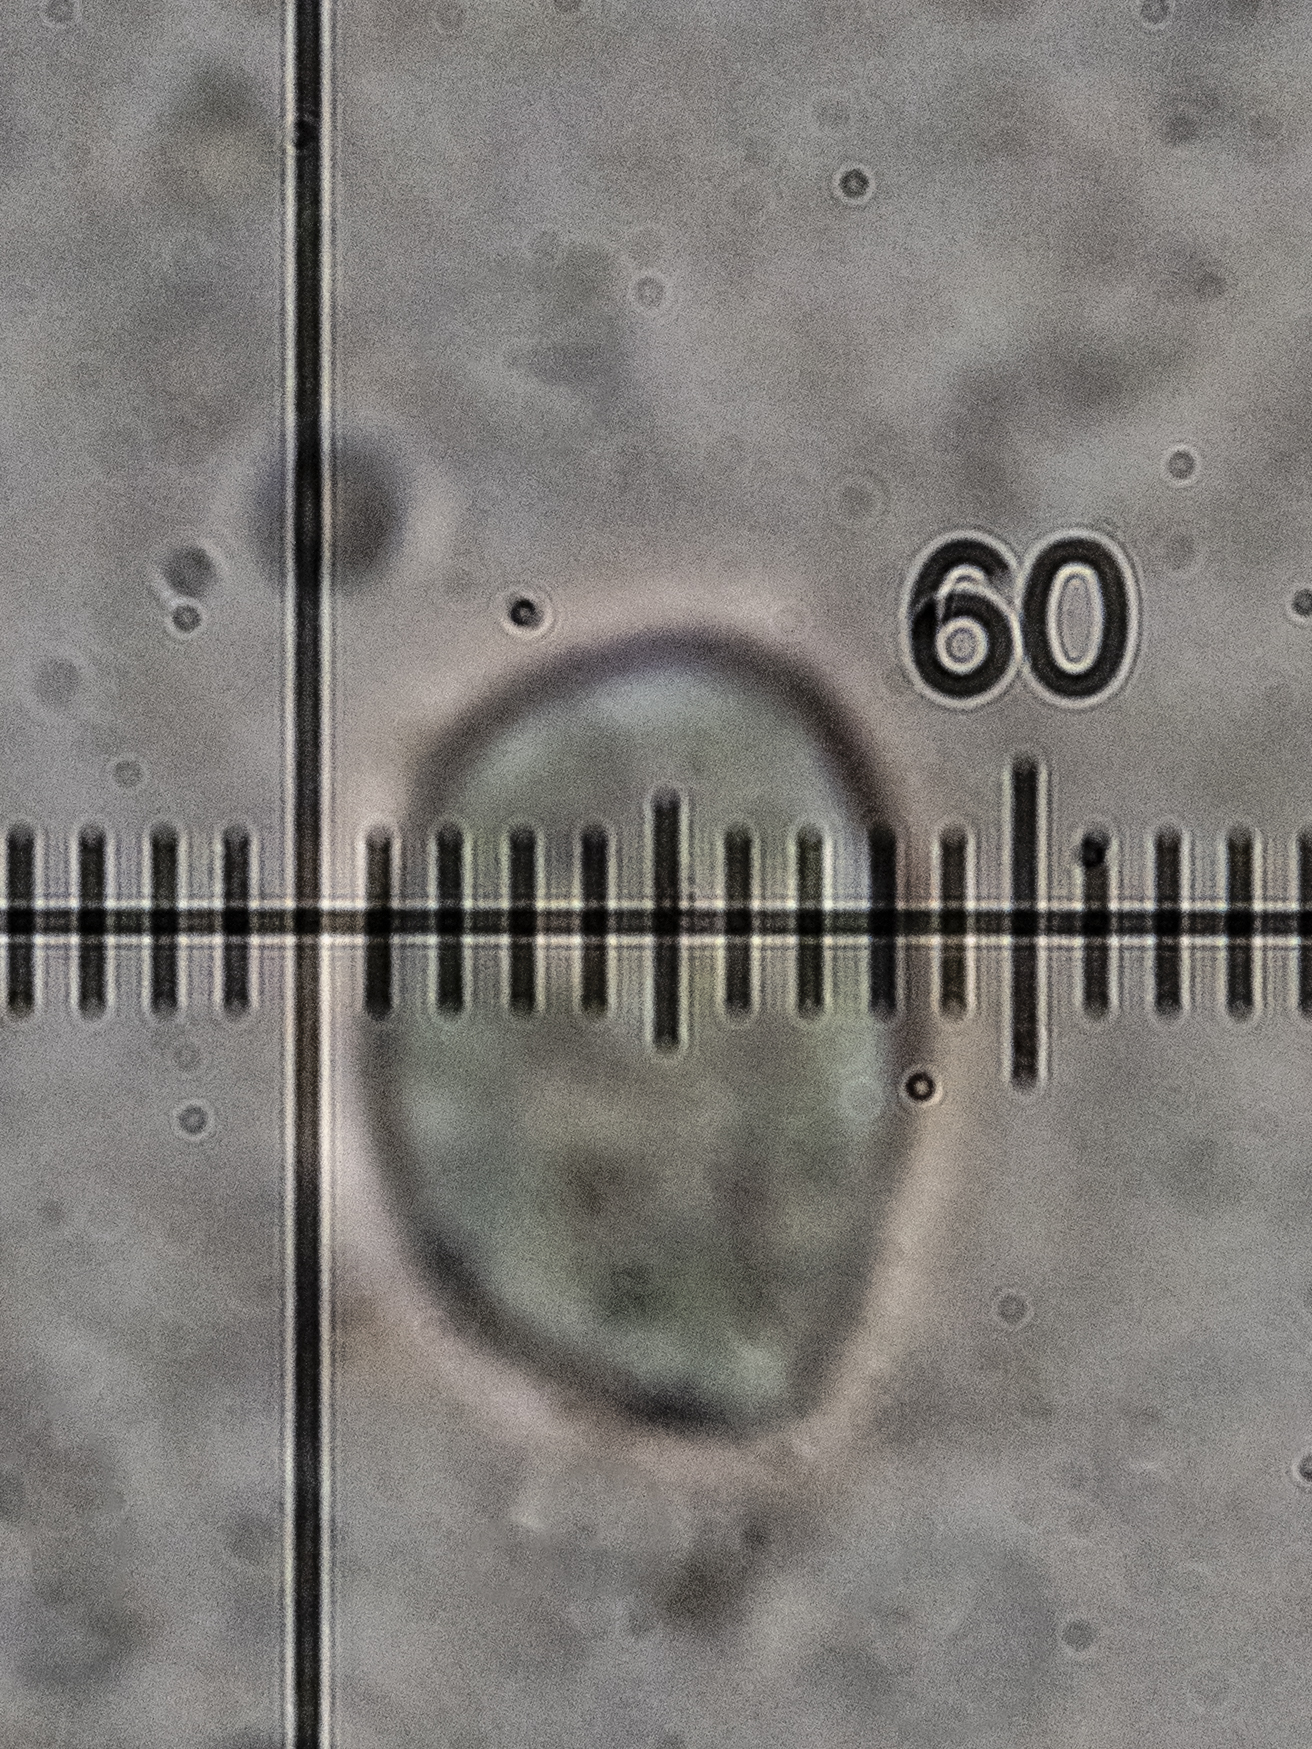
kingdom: Fungi
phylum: Basidiomycota
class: Agaricomycetes
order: Cantharellales
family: Hydnaceae
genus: Clavulina
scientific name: Clavulina cinerea
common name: Grey coral
